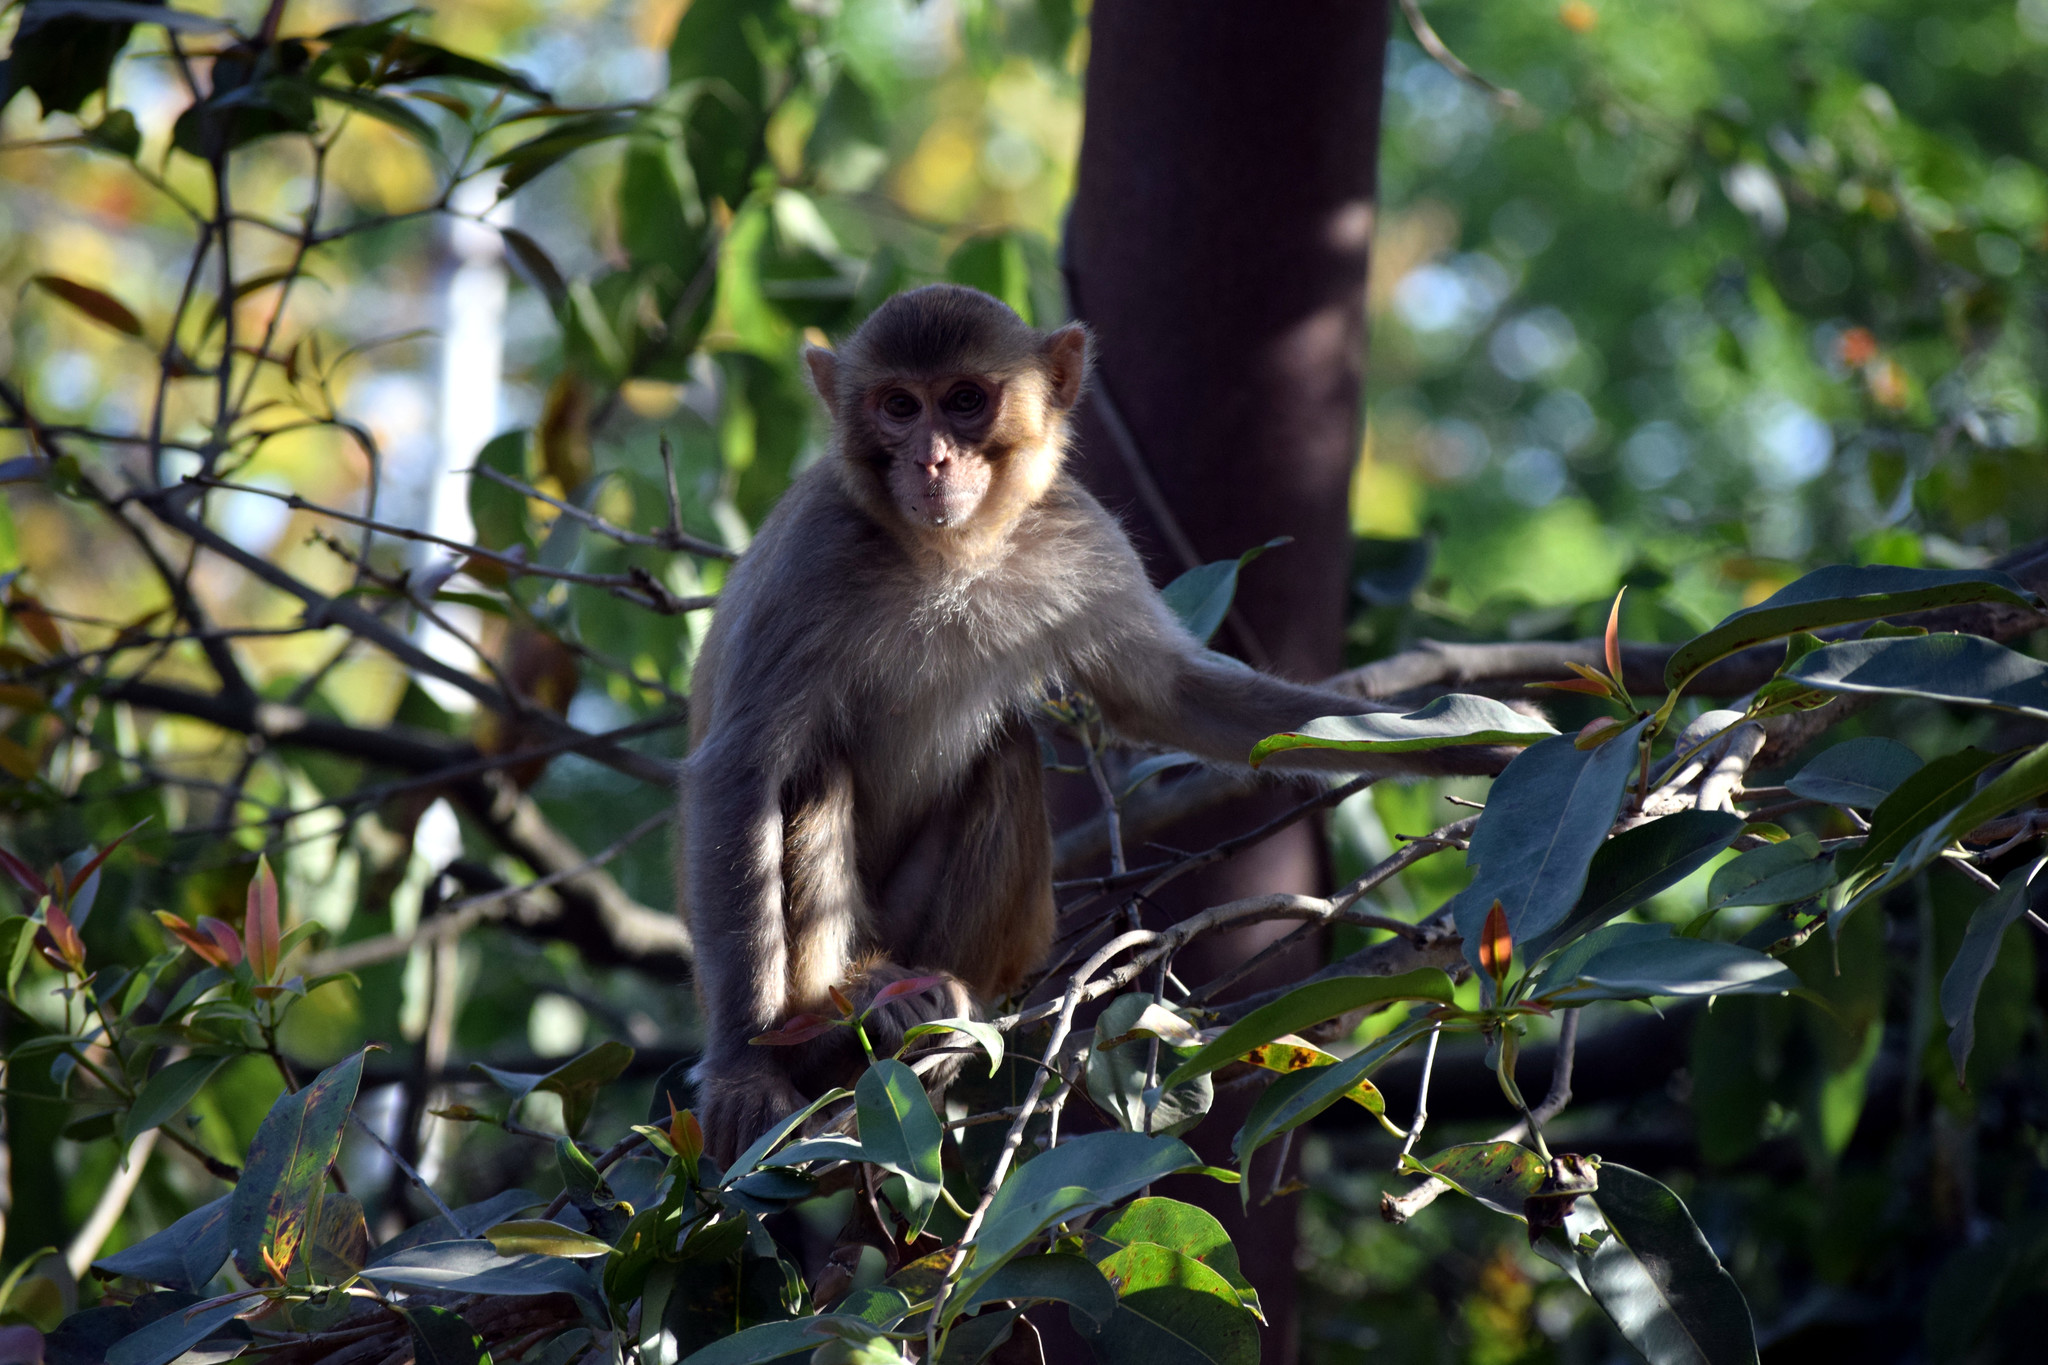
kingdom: Animalia
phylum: Chordata
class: Mammalia
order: Primates
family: Cercopithecidae
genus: Macaca
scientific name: Macaca mulatta
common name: Rhesus monkey
